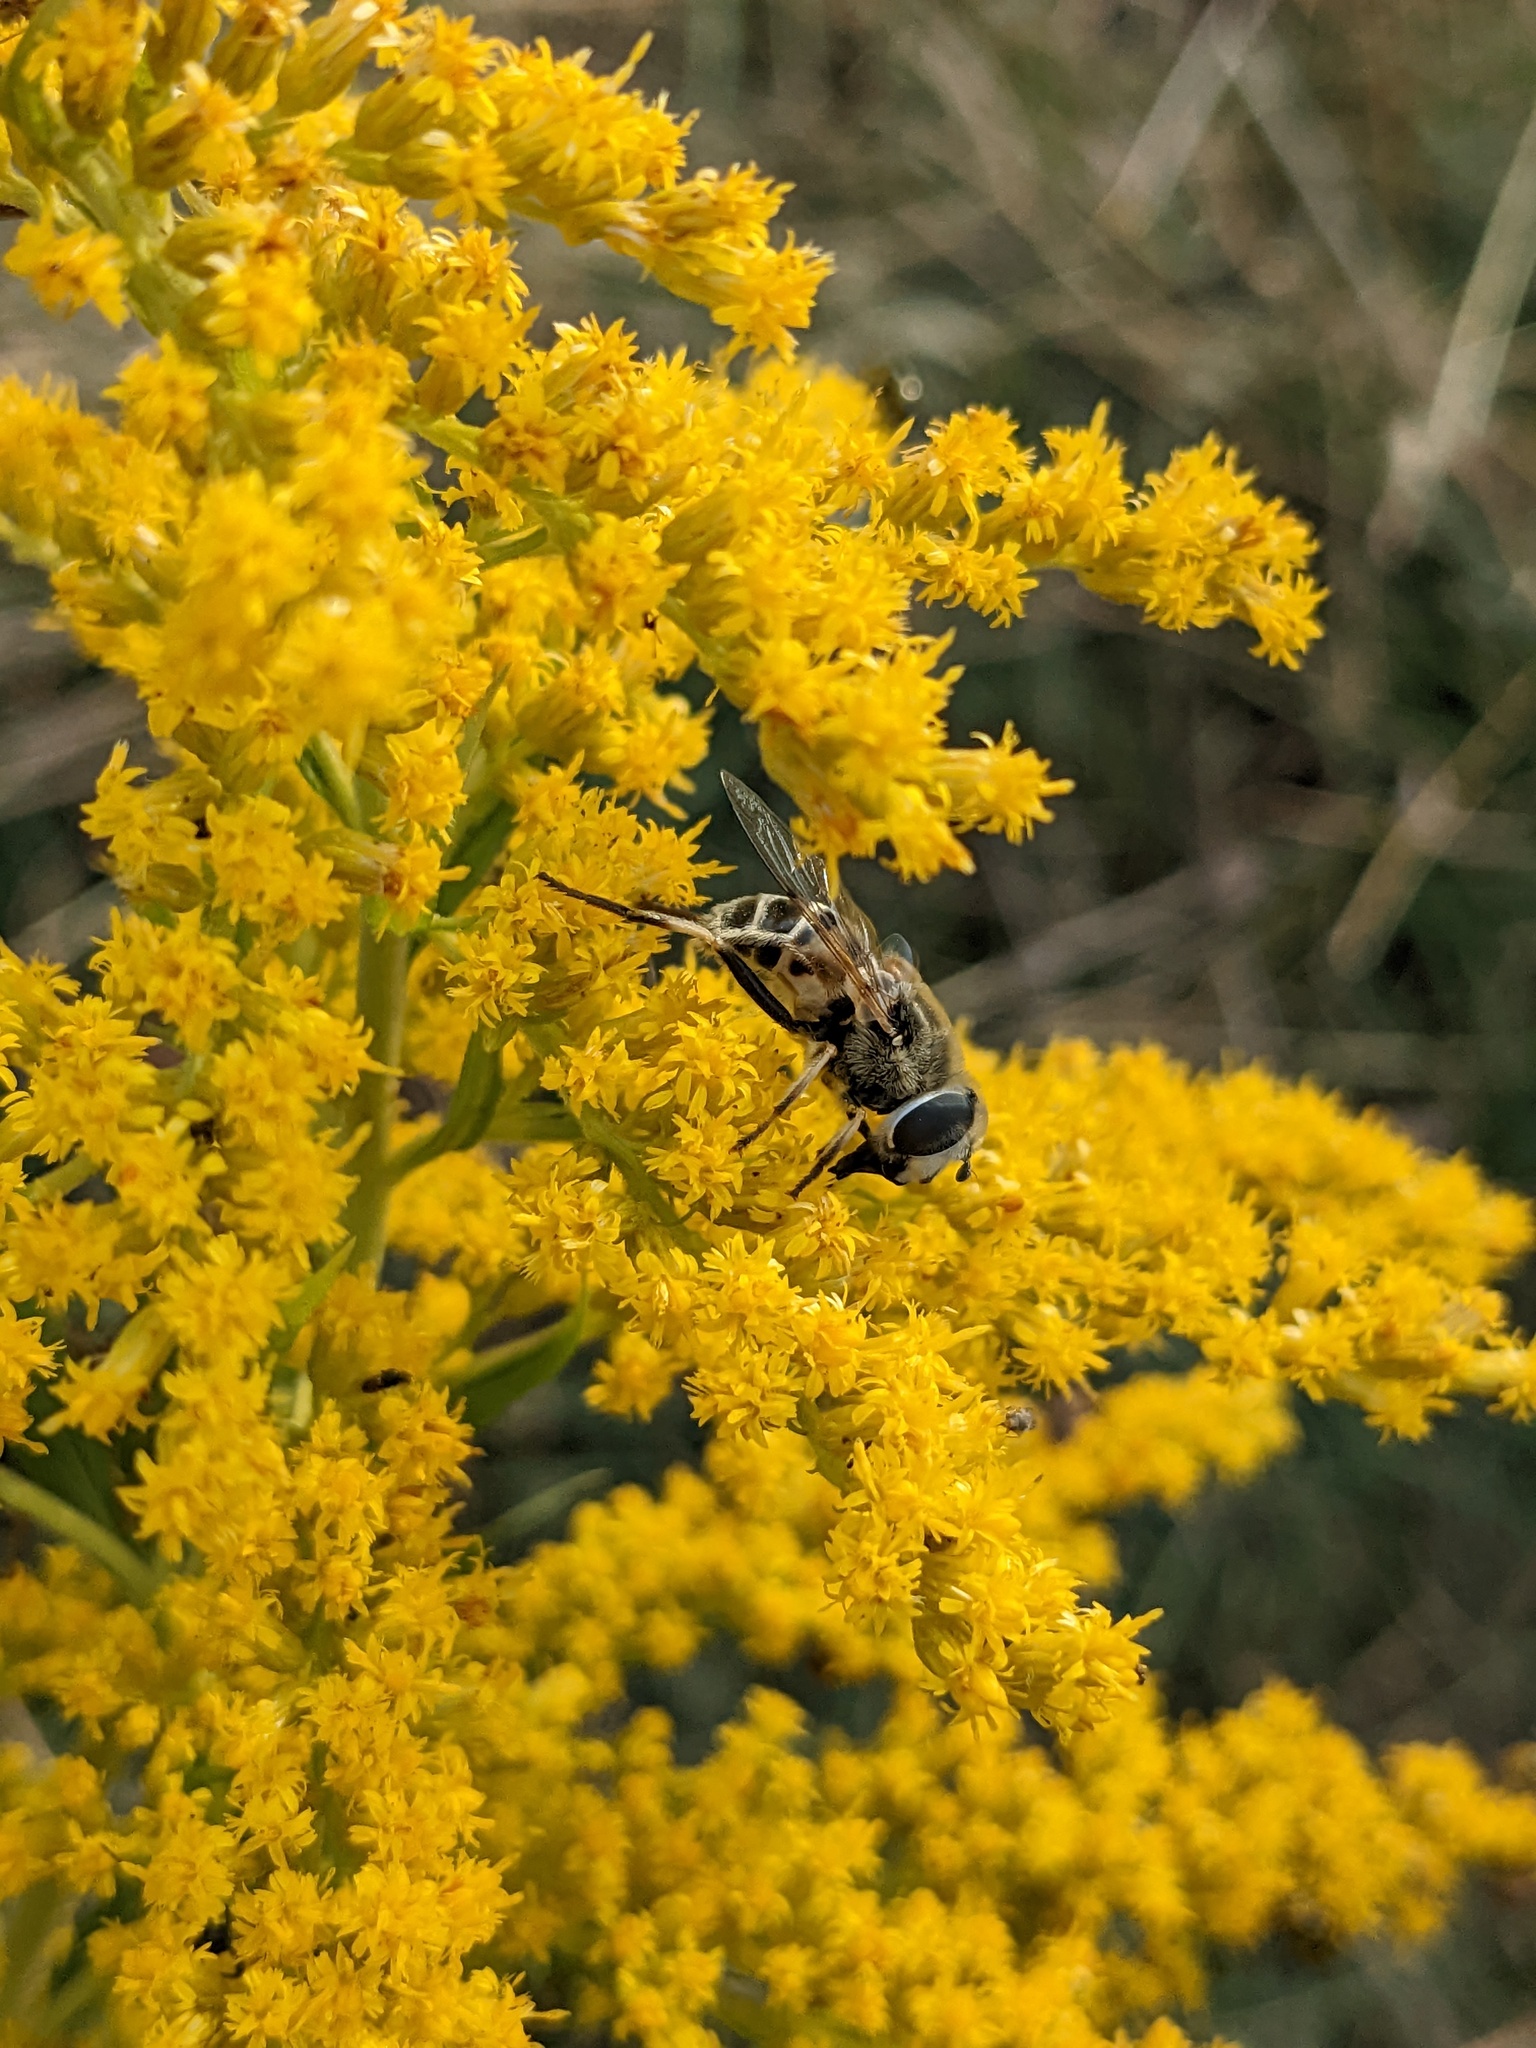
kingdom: Animalia
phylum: Arthropoda
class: Insecta
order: Diptera
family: Syrphidae
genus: Eristalis
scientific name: Eristalis stipator
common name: Yellow-shouldered drone fly
